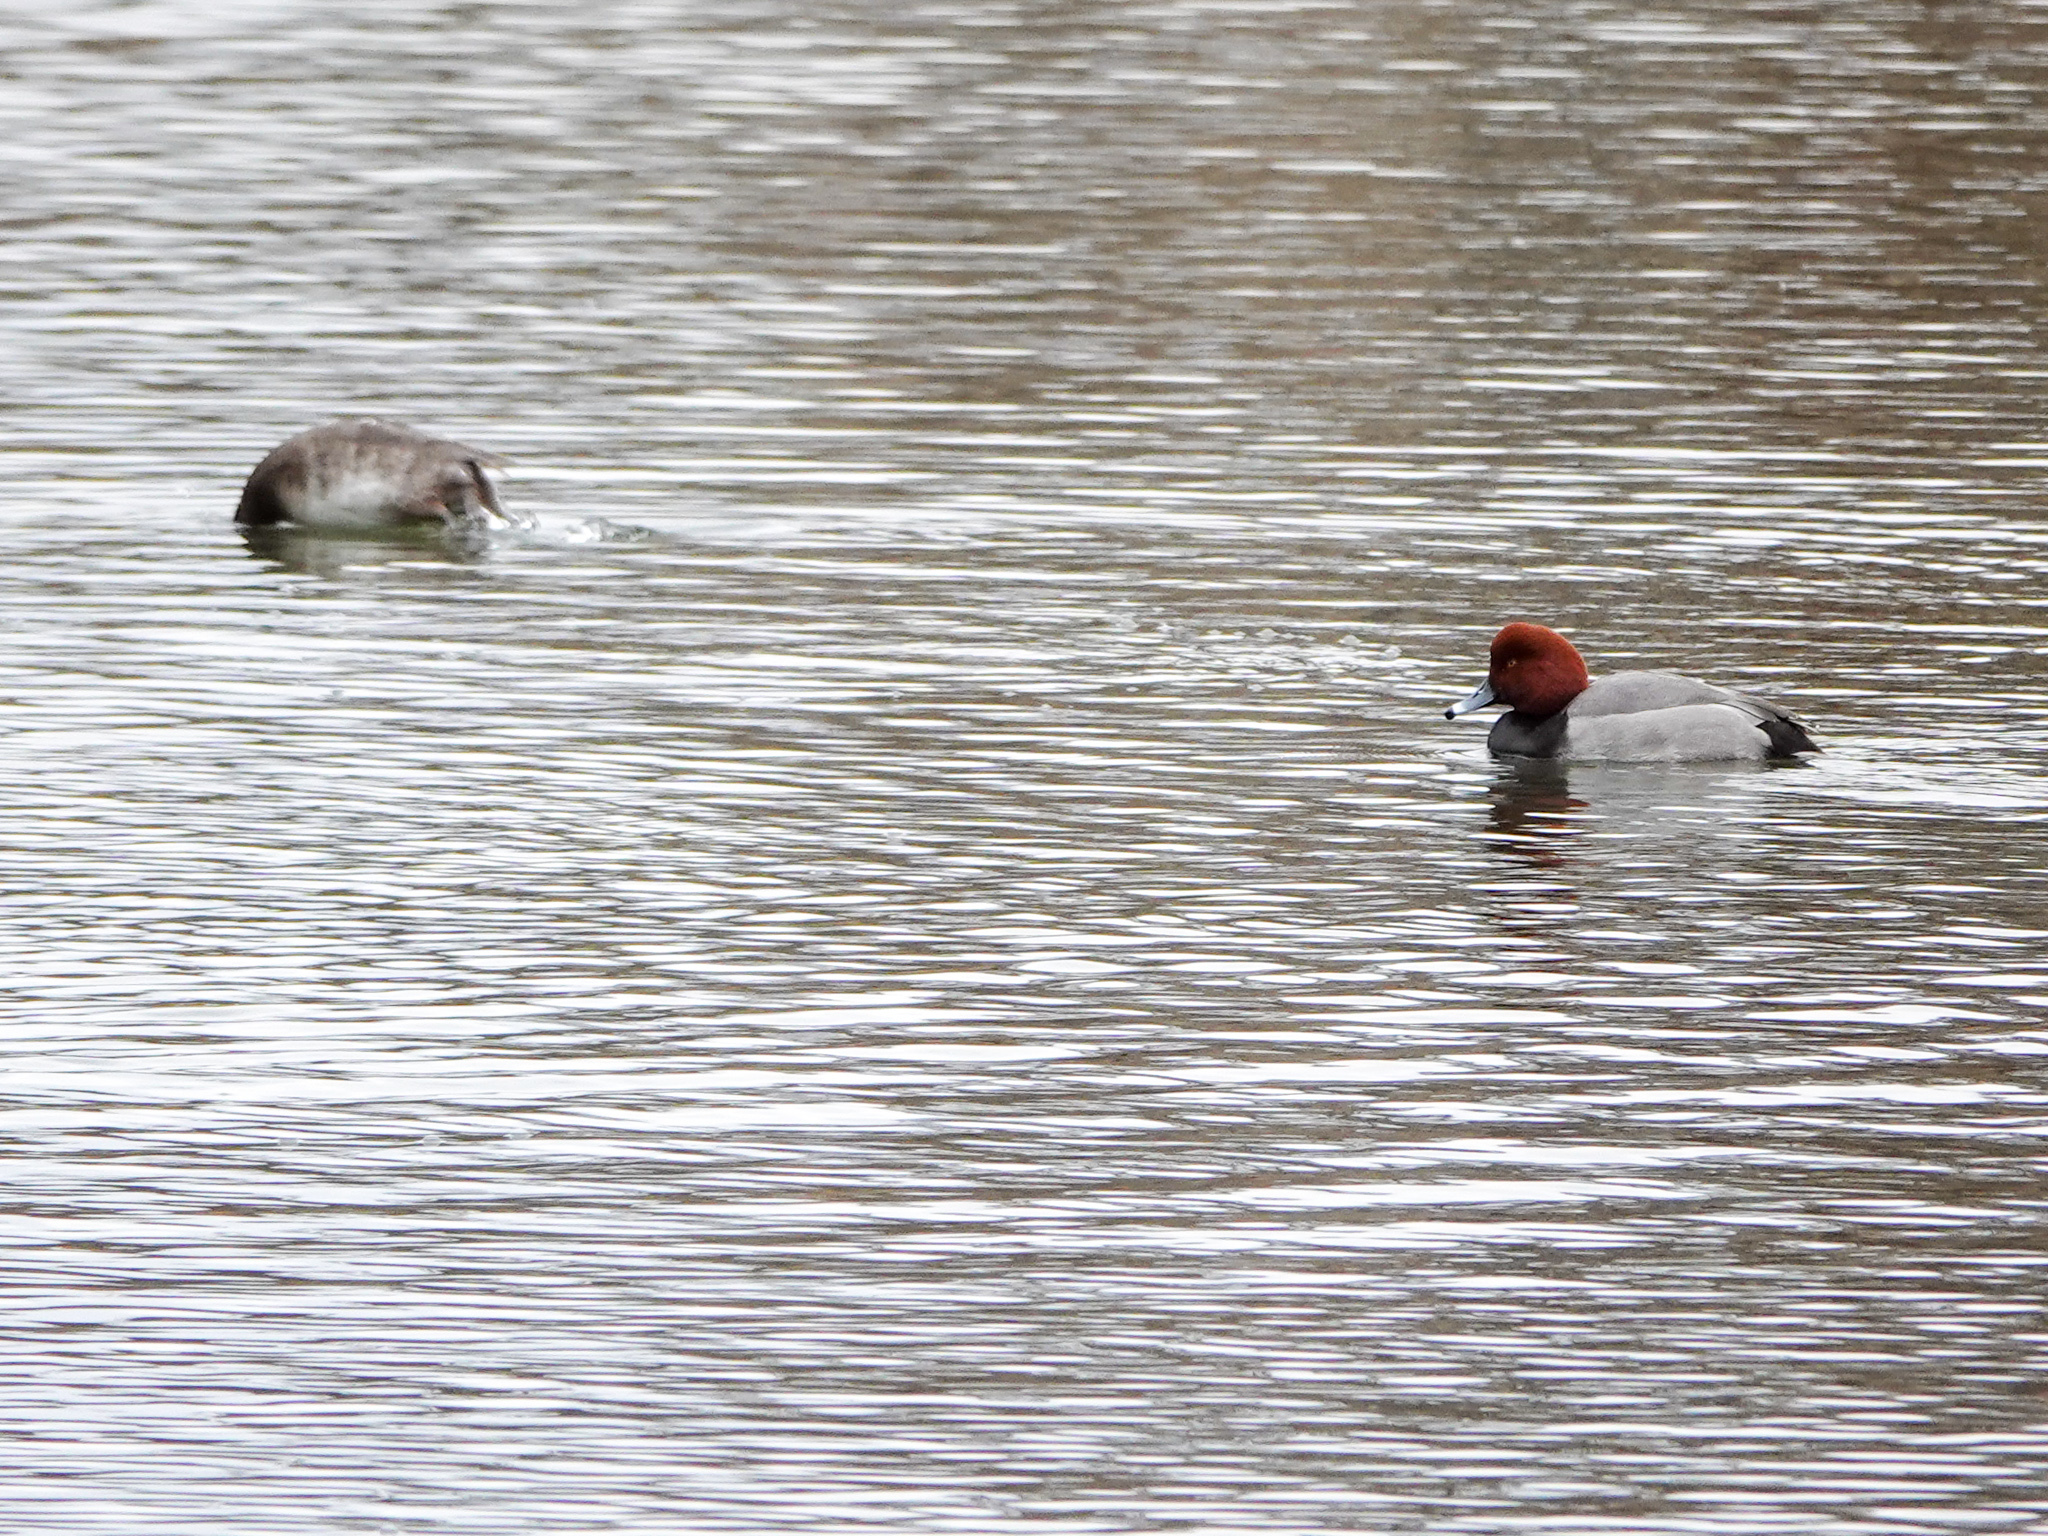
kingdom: Animalia
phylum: Chordata
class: Aves
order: Anseriformes
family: Anatidae
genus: Aythya
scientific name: Aythya americana
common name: Redhead
